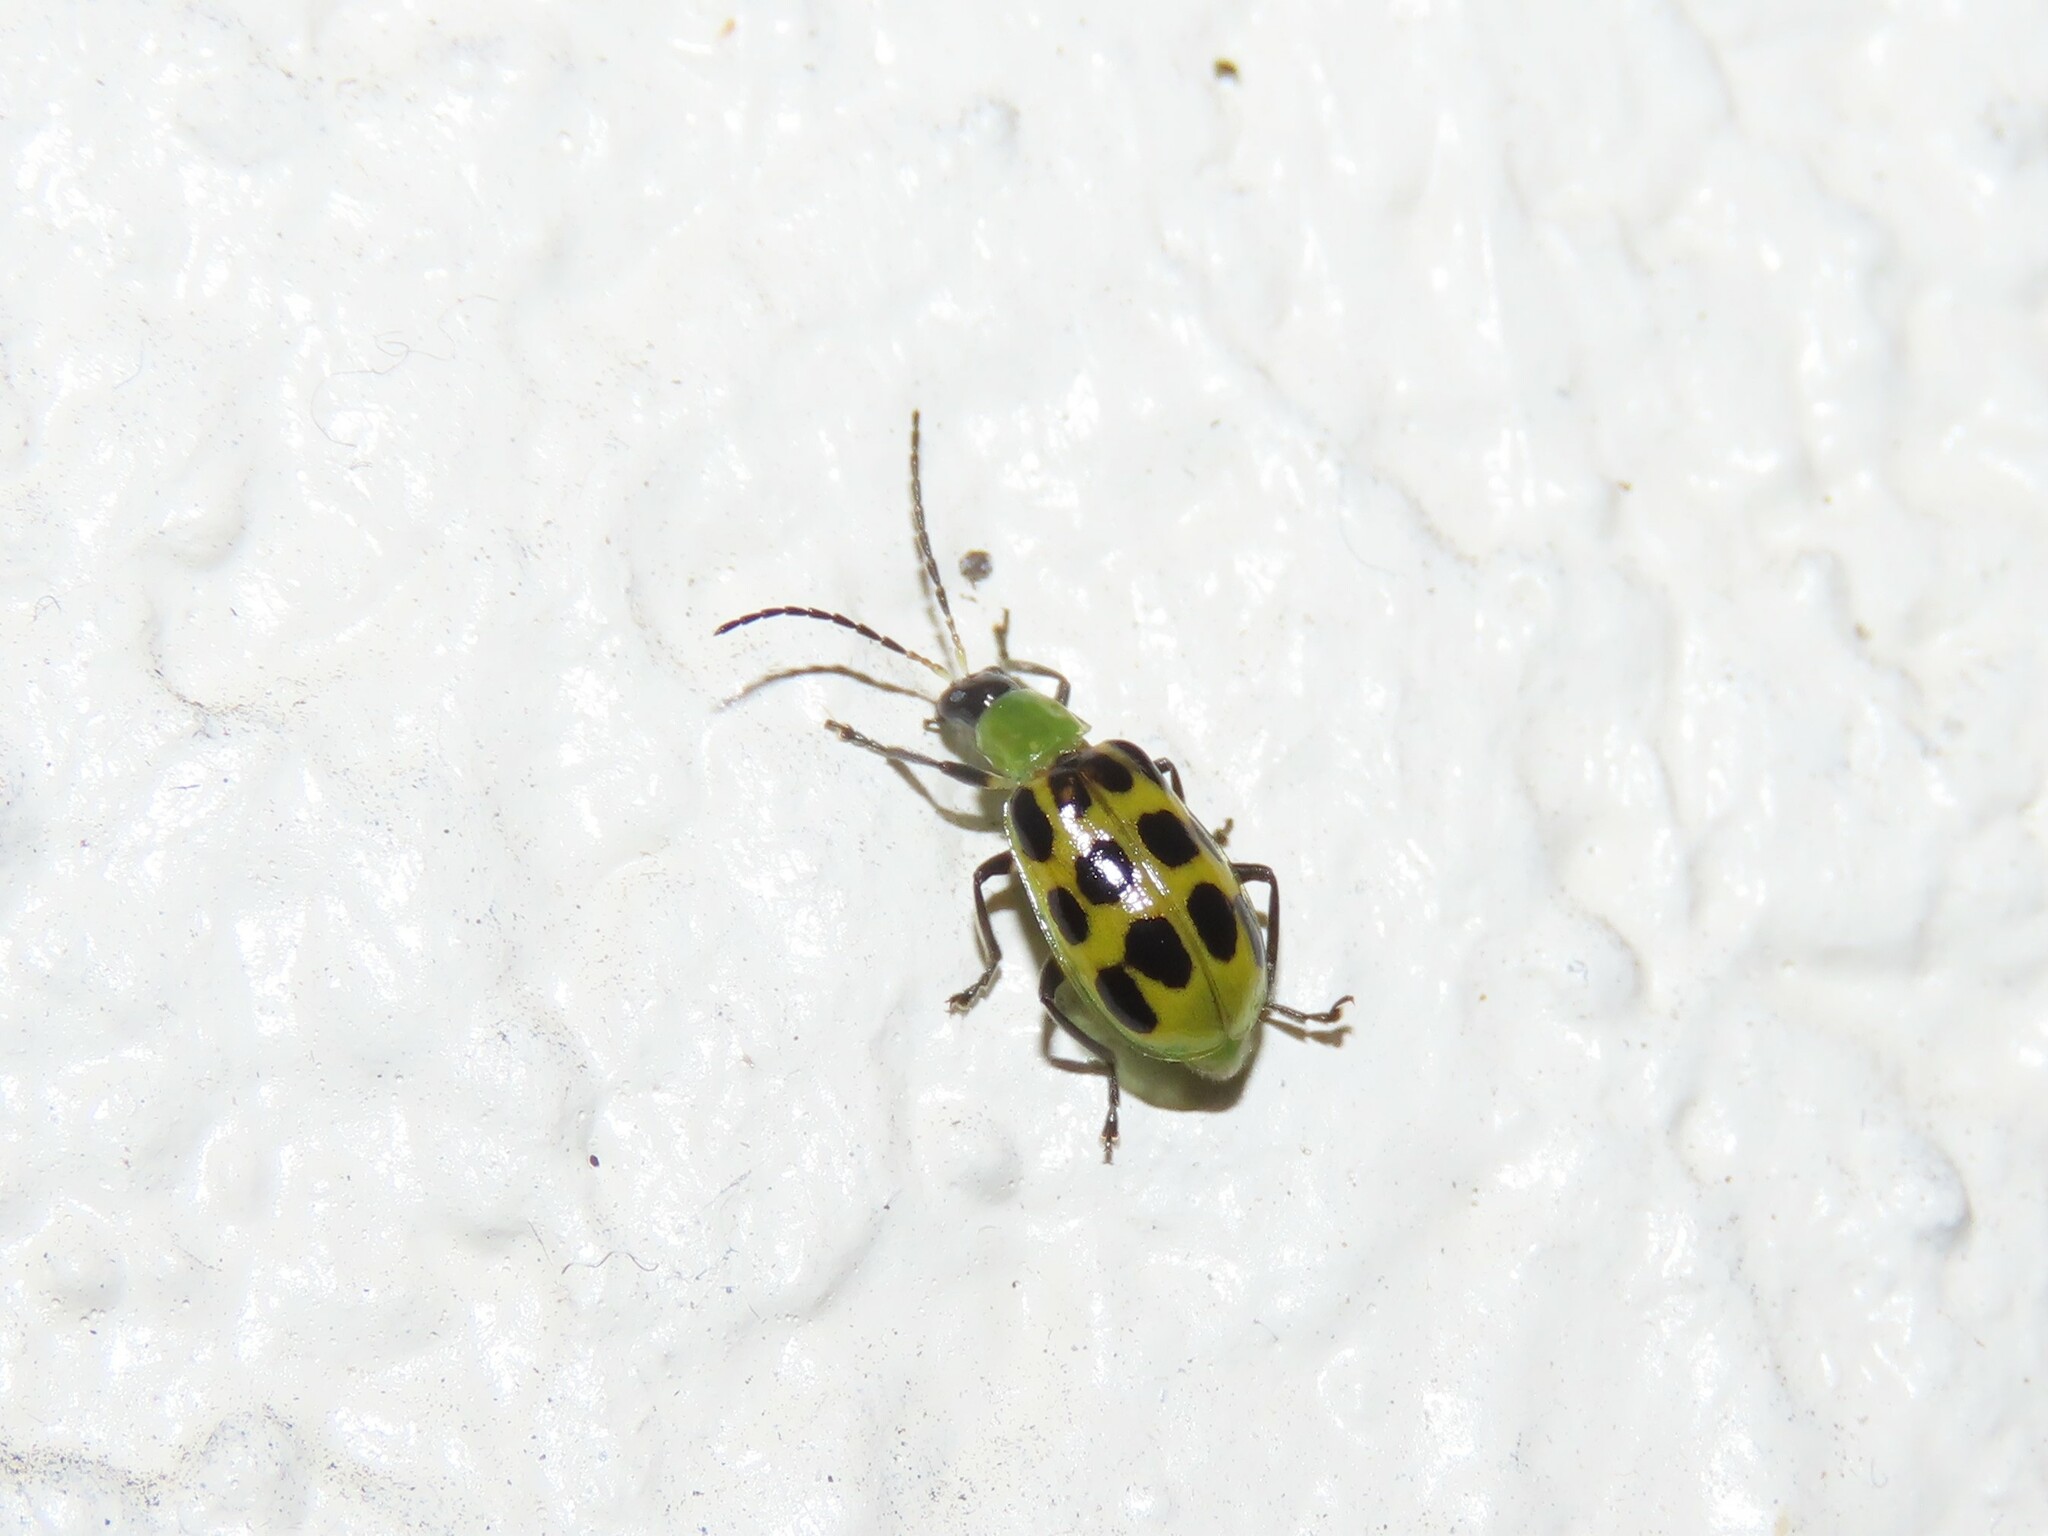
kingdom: Animalia
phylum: Arthropoda
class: Insecta
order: Coleoptera
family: Chrysomelidae
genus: Diabrotica
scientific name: Diabrotica undecimpunctata
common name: Spotted cucumber beetle
